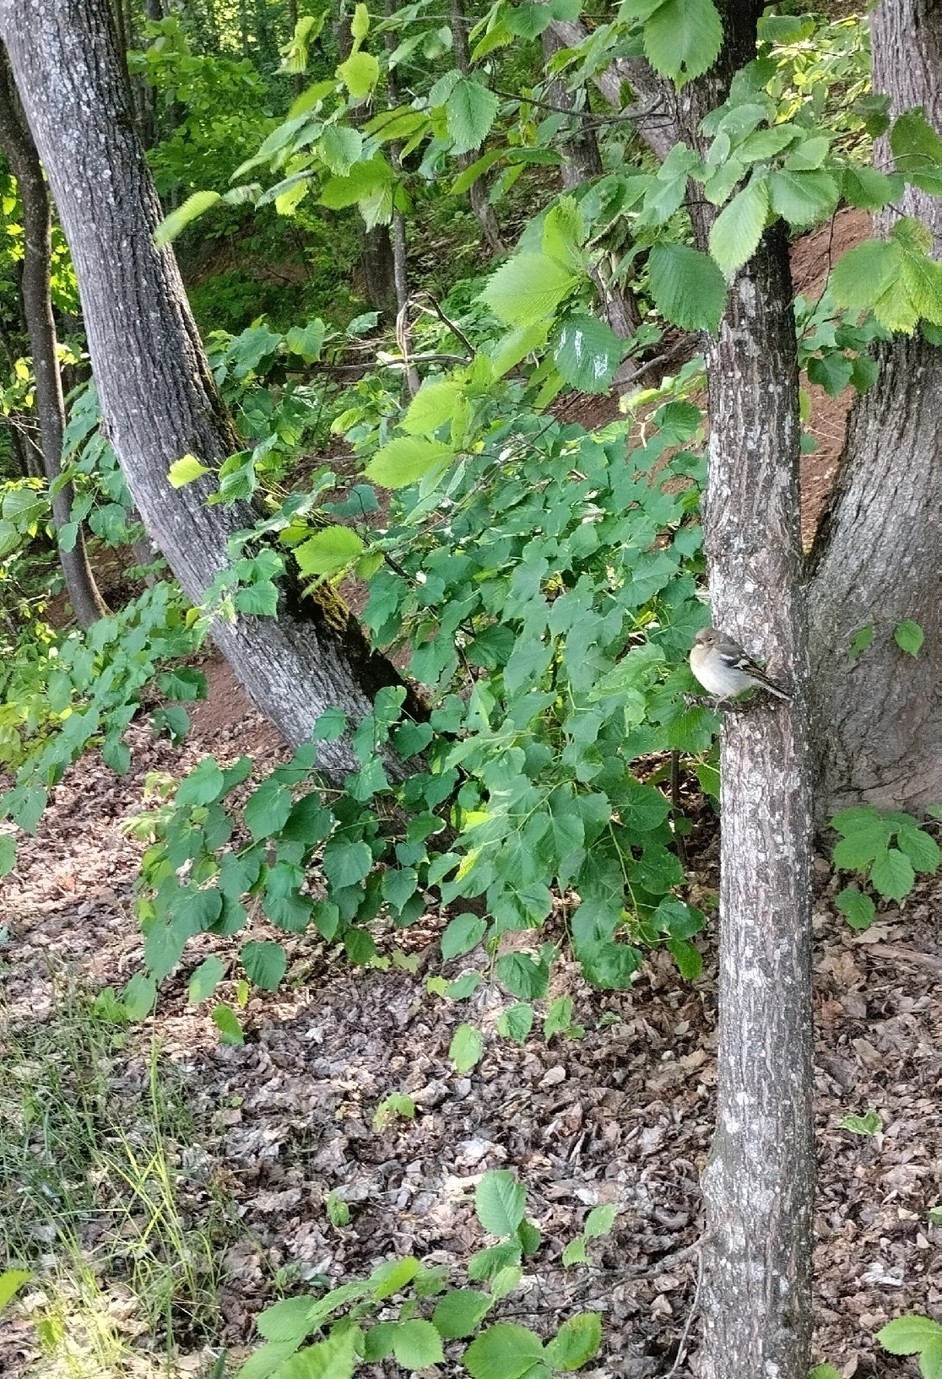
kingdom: Animalia
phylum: Chordata
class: Aves
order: Passeriformes
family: Fringillidae
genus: Fringilla
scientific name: Fringilla coelebs
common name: Common chaffinch
